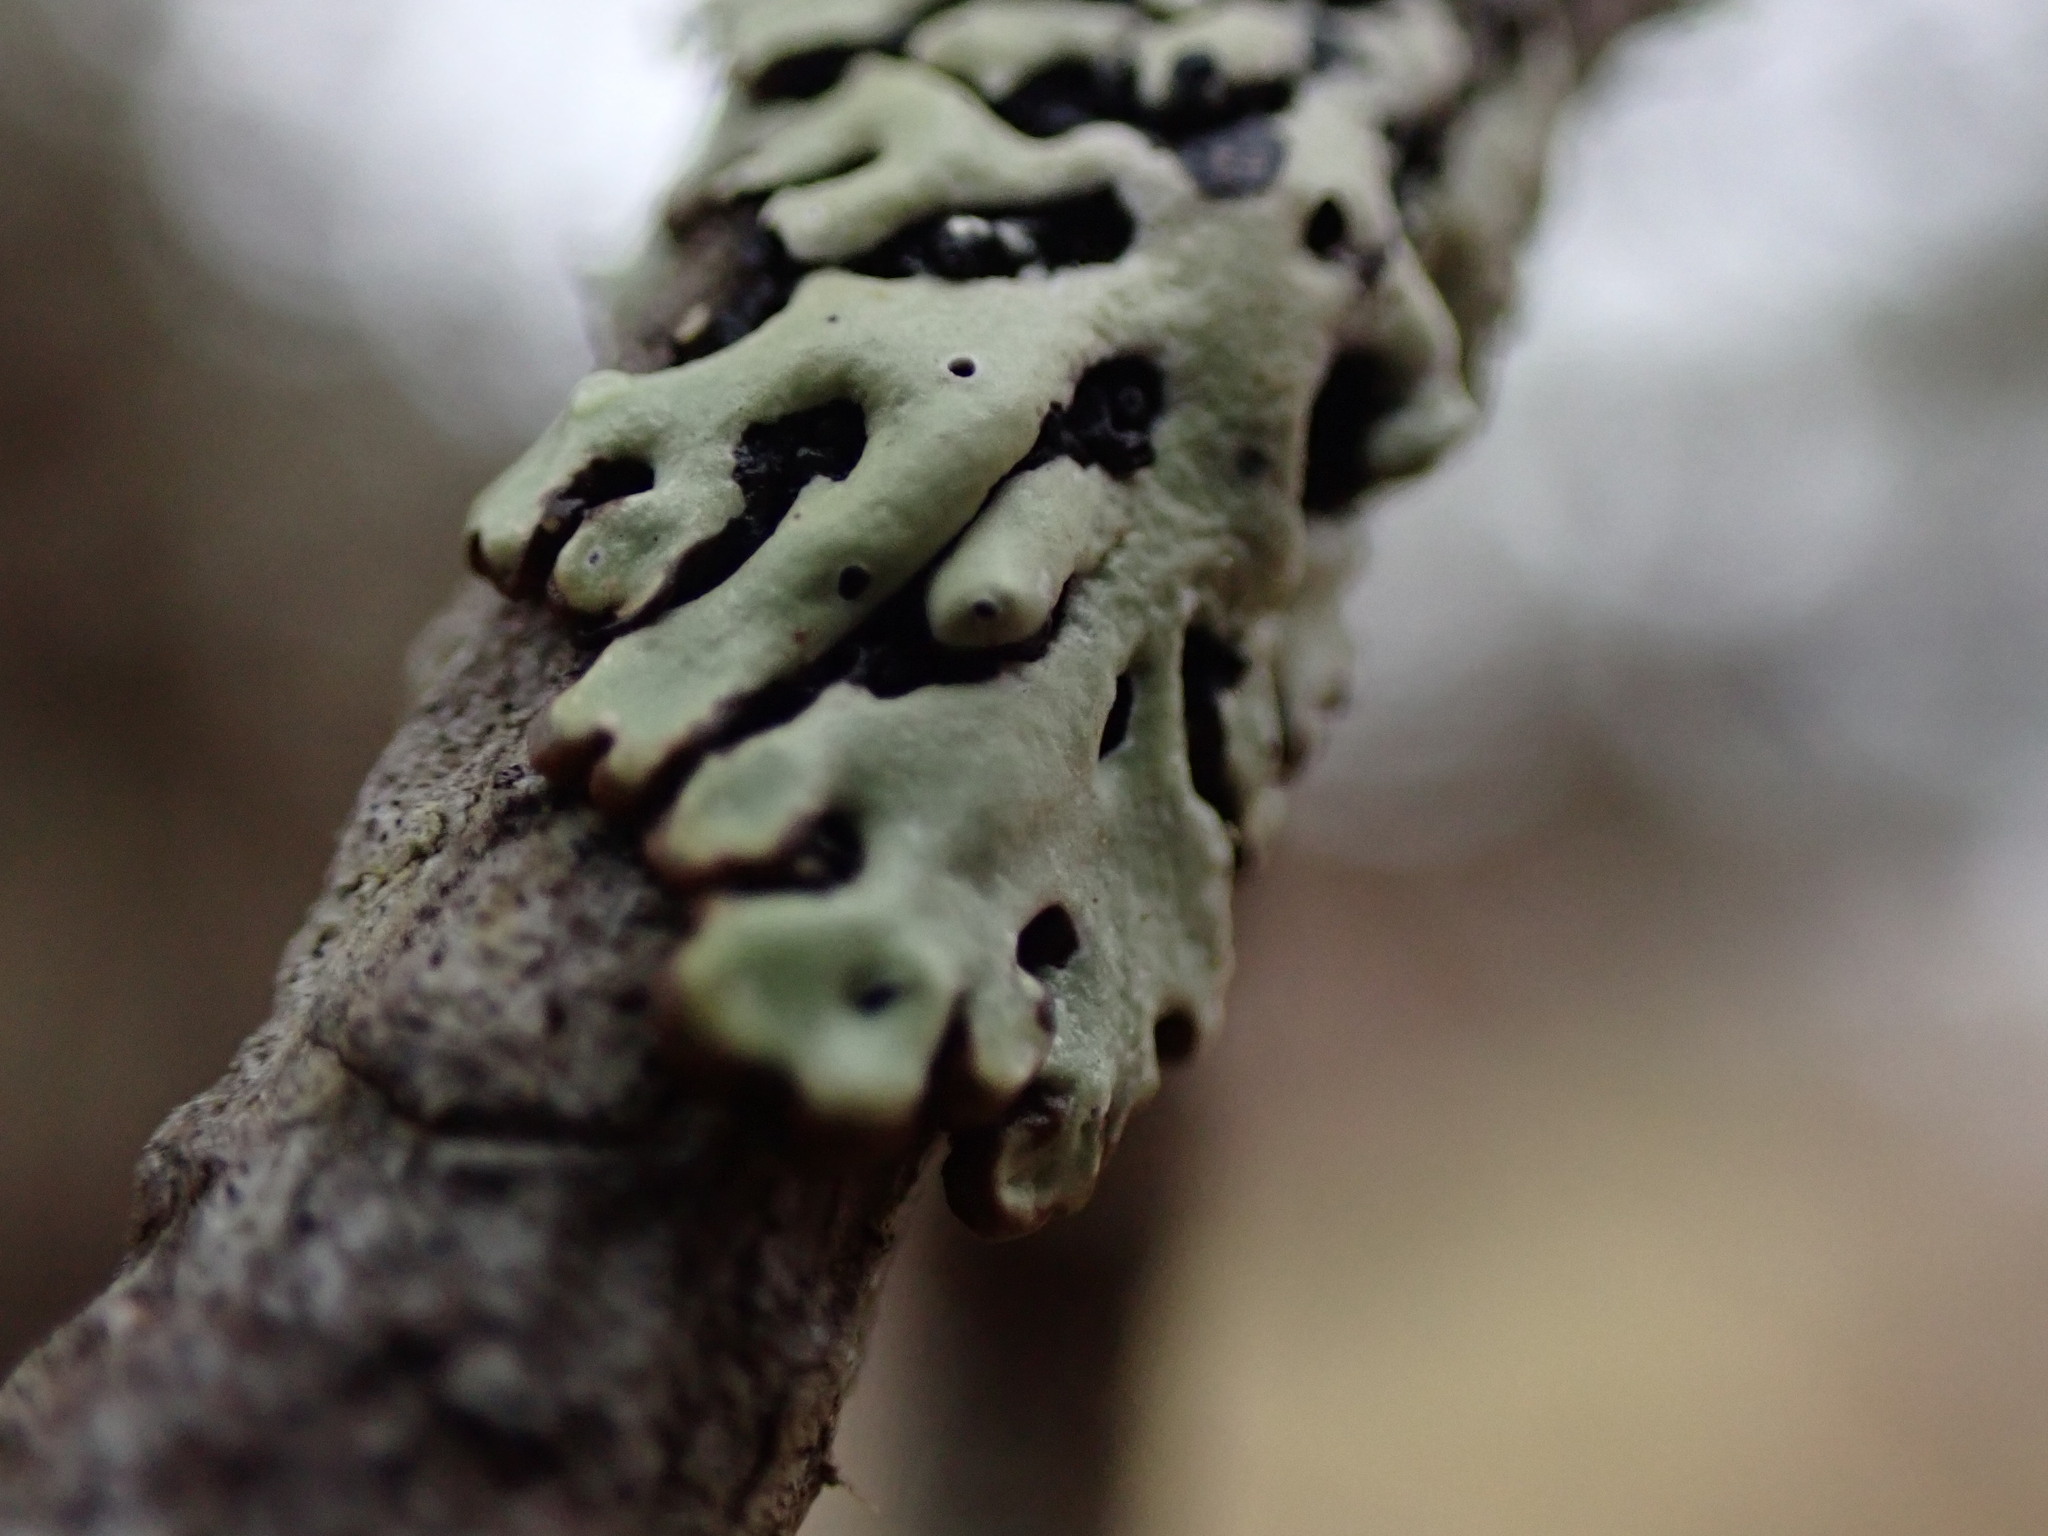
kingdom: Fungi
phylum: Ascomycota
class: Lecanoromycetes
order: Lecanorales
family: Parmeliaceae
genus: Menegazzia
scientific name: Menegazzia subsimilis
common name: Tree flute lichen
